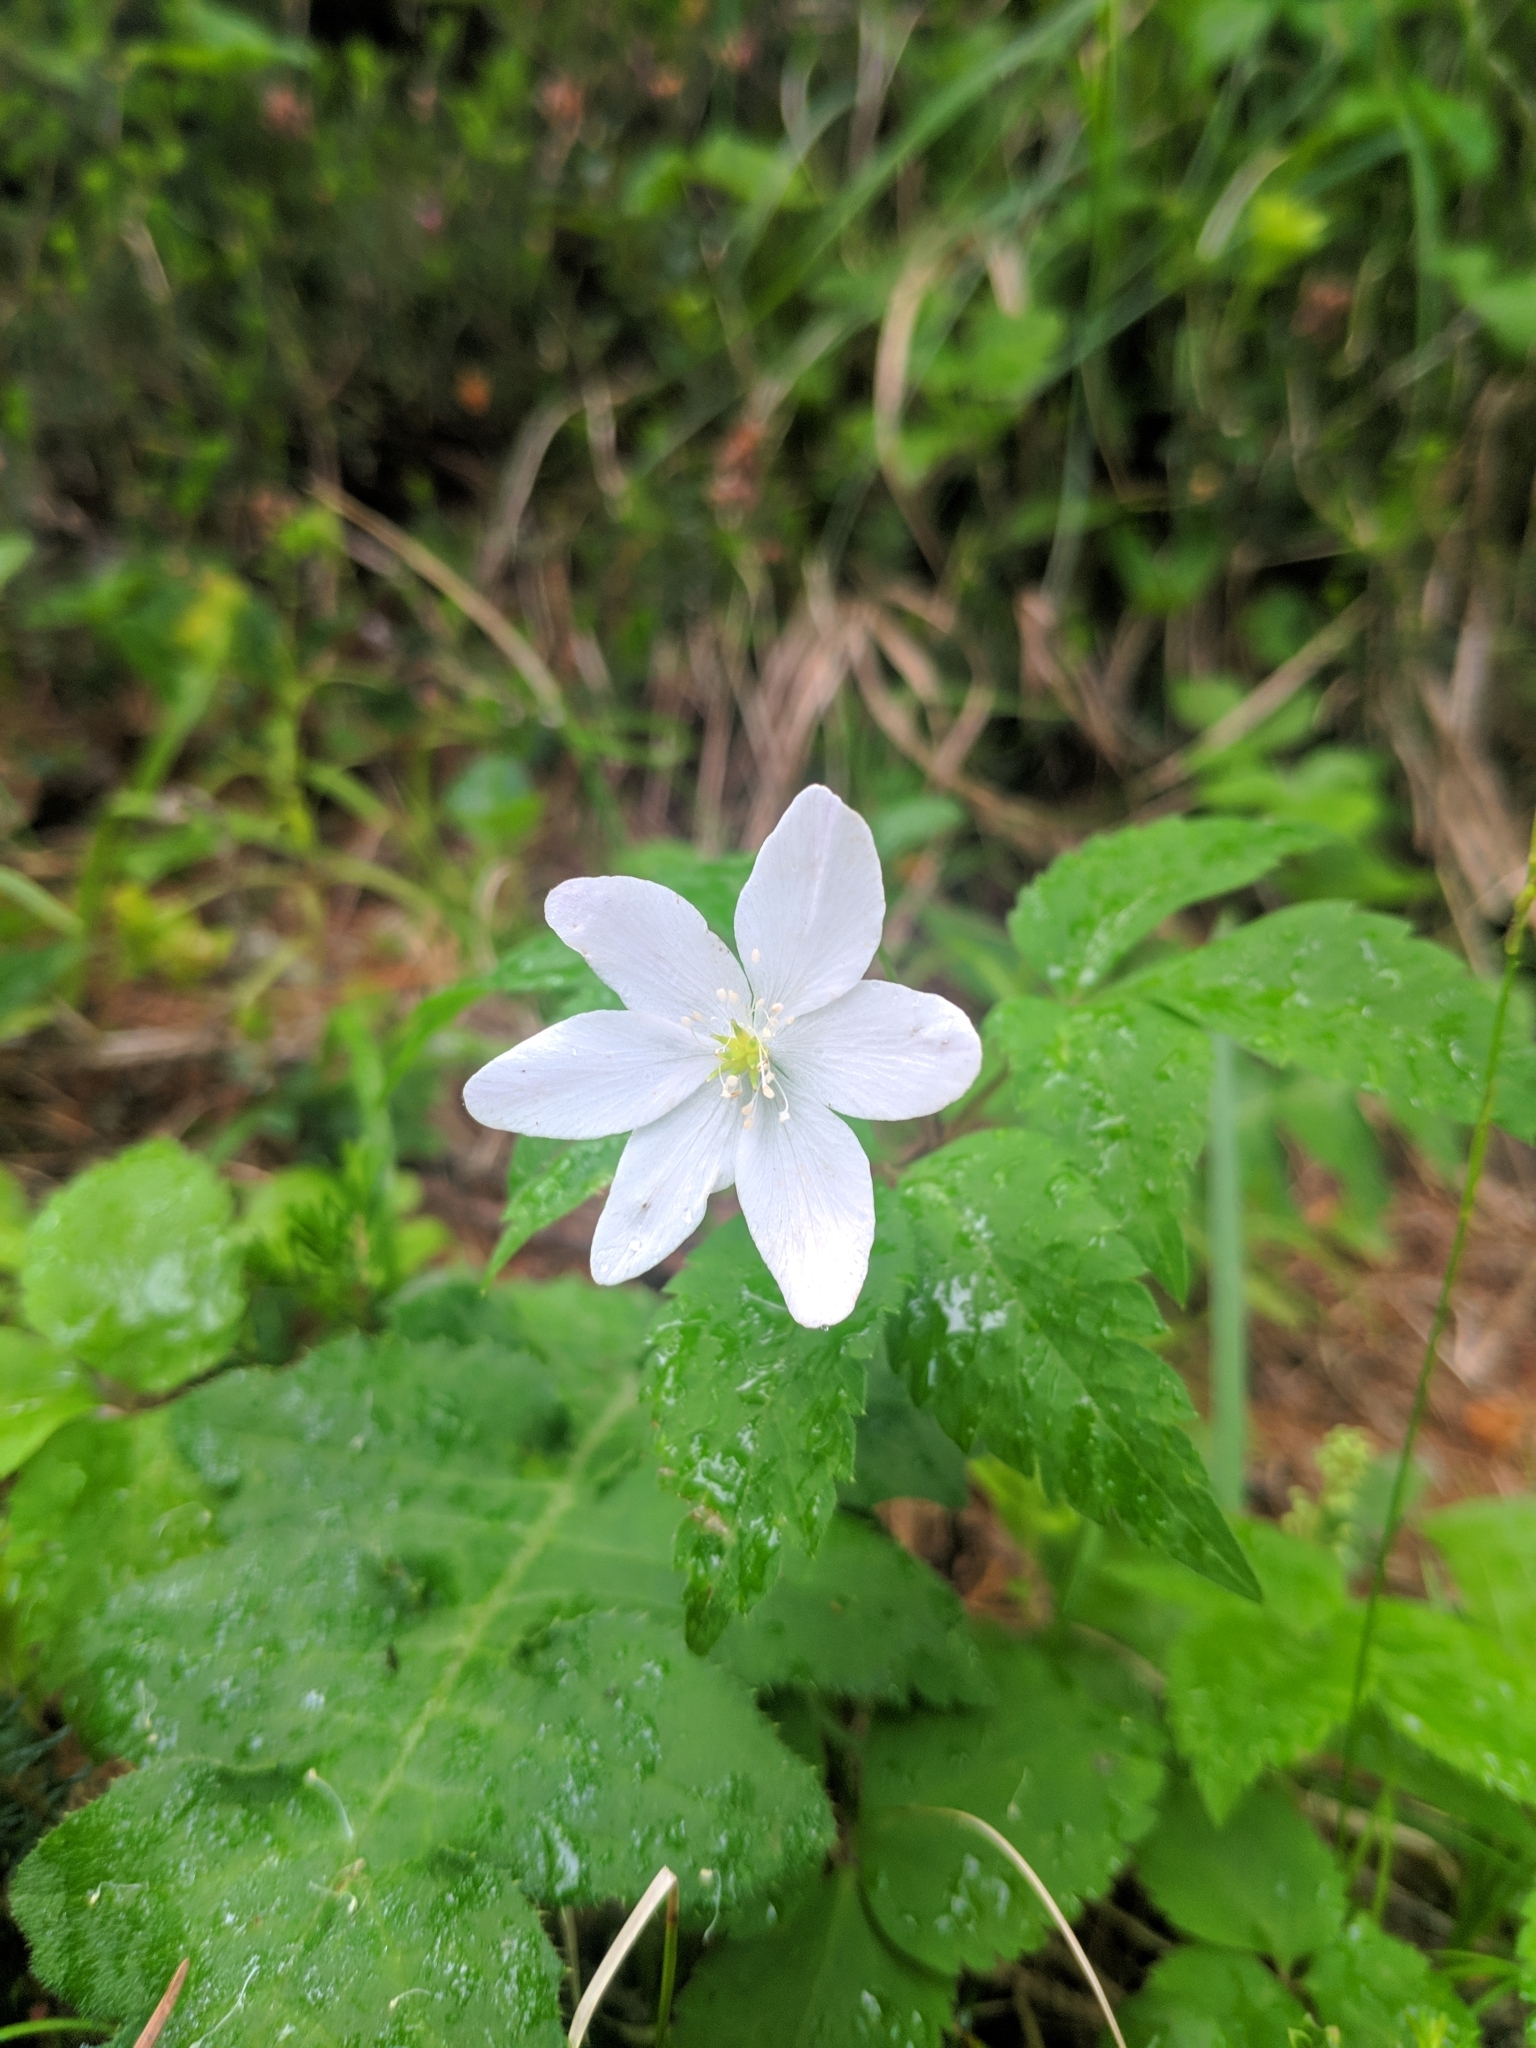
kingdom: Plantae
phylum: Tracheophyta
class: Magnoliopsida
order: Ranunculales
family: Ranunculaceae
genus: Anemone
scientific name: Anemone trifolia
